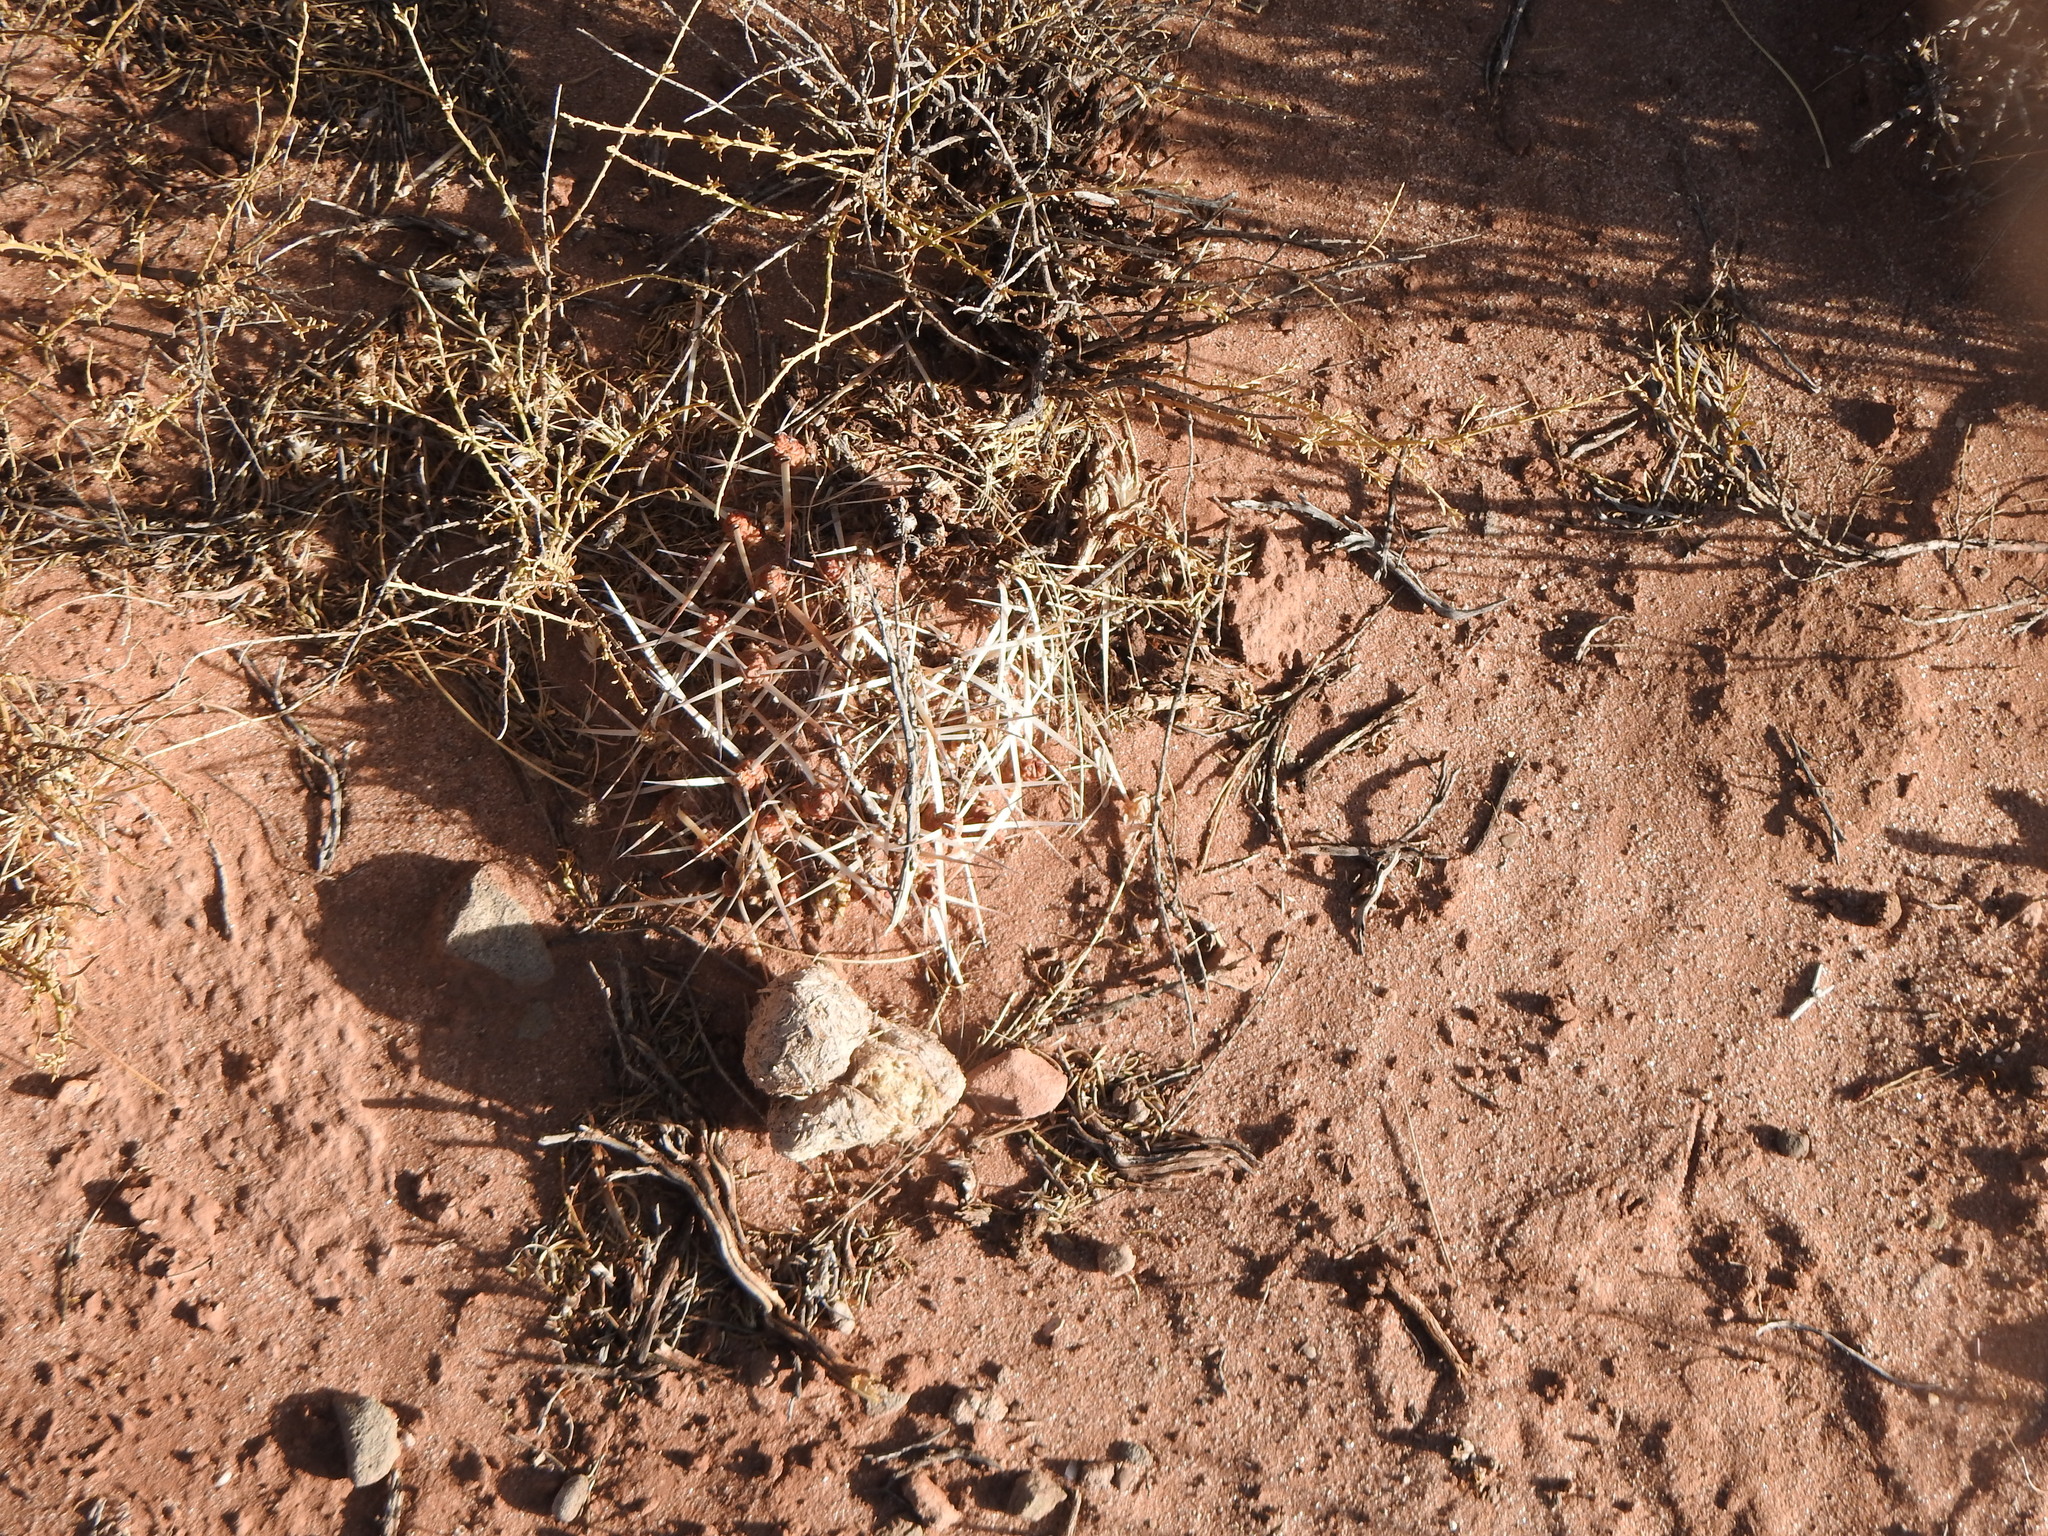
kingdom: Plantae
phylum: Tracheophyta
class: Magnoliopsida
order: Caryophyllales
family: Cactaceae
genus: Maihueniopsis
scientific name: Maihueniopsis glomerata
